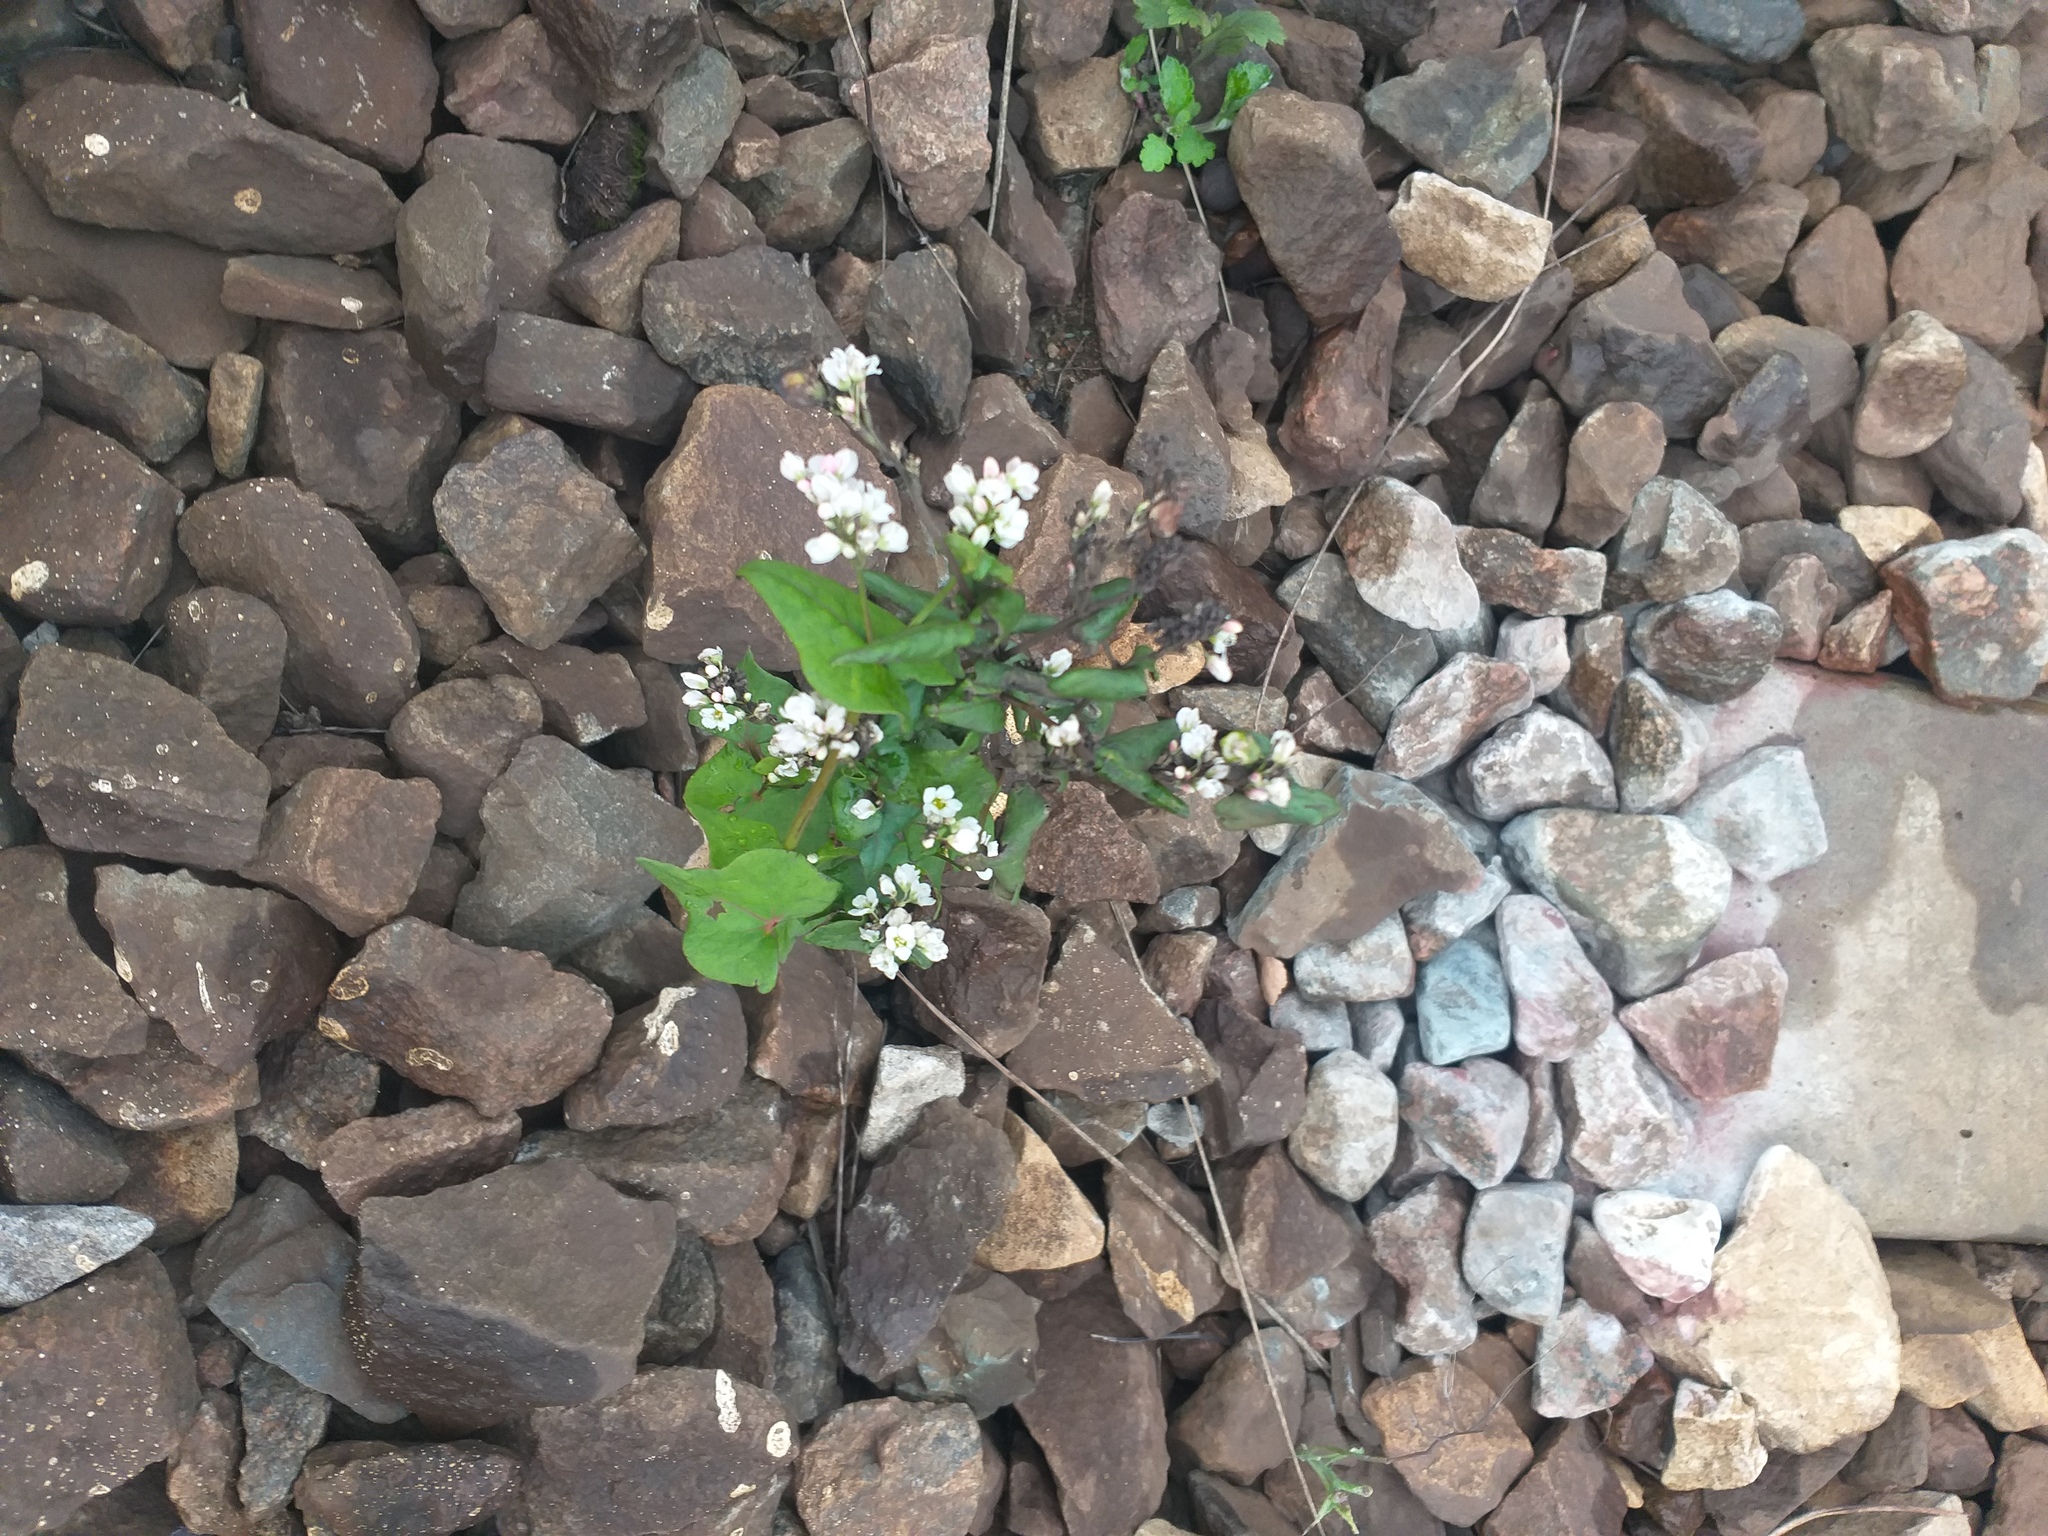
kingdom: Plantae
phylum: Tracheophyta
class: Magnoliopsida
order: Caryophyllales
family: Polygonaceae
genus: Fagopyrum
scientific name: Fagopyrum esculentum
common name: Buckwheat
